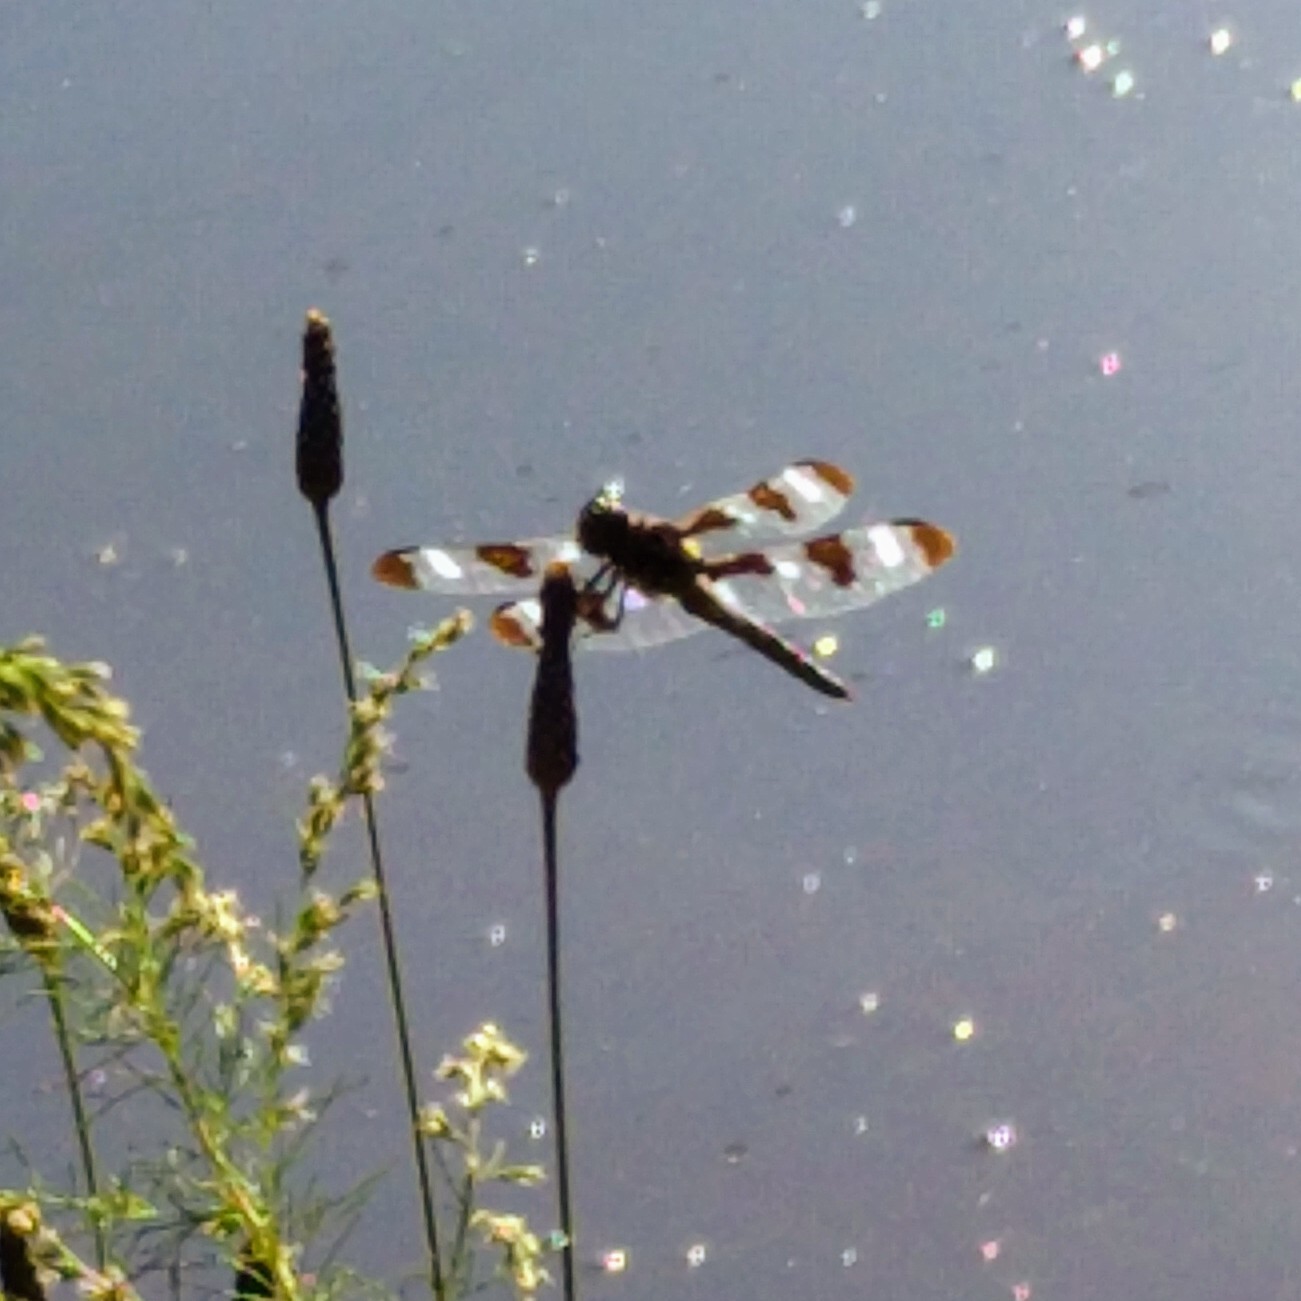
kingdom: Animalia
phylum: Arthropoda
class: Insecta
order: Odonata
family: Libellulidae
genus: Libellula
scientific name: Libellula pulchella
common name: Twelve-spotted skimmer
